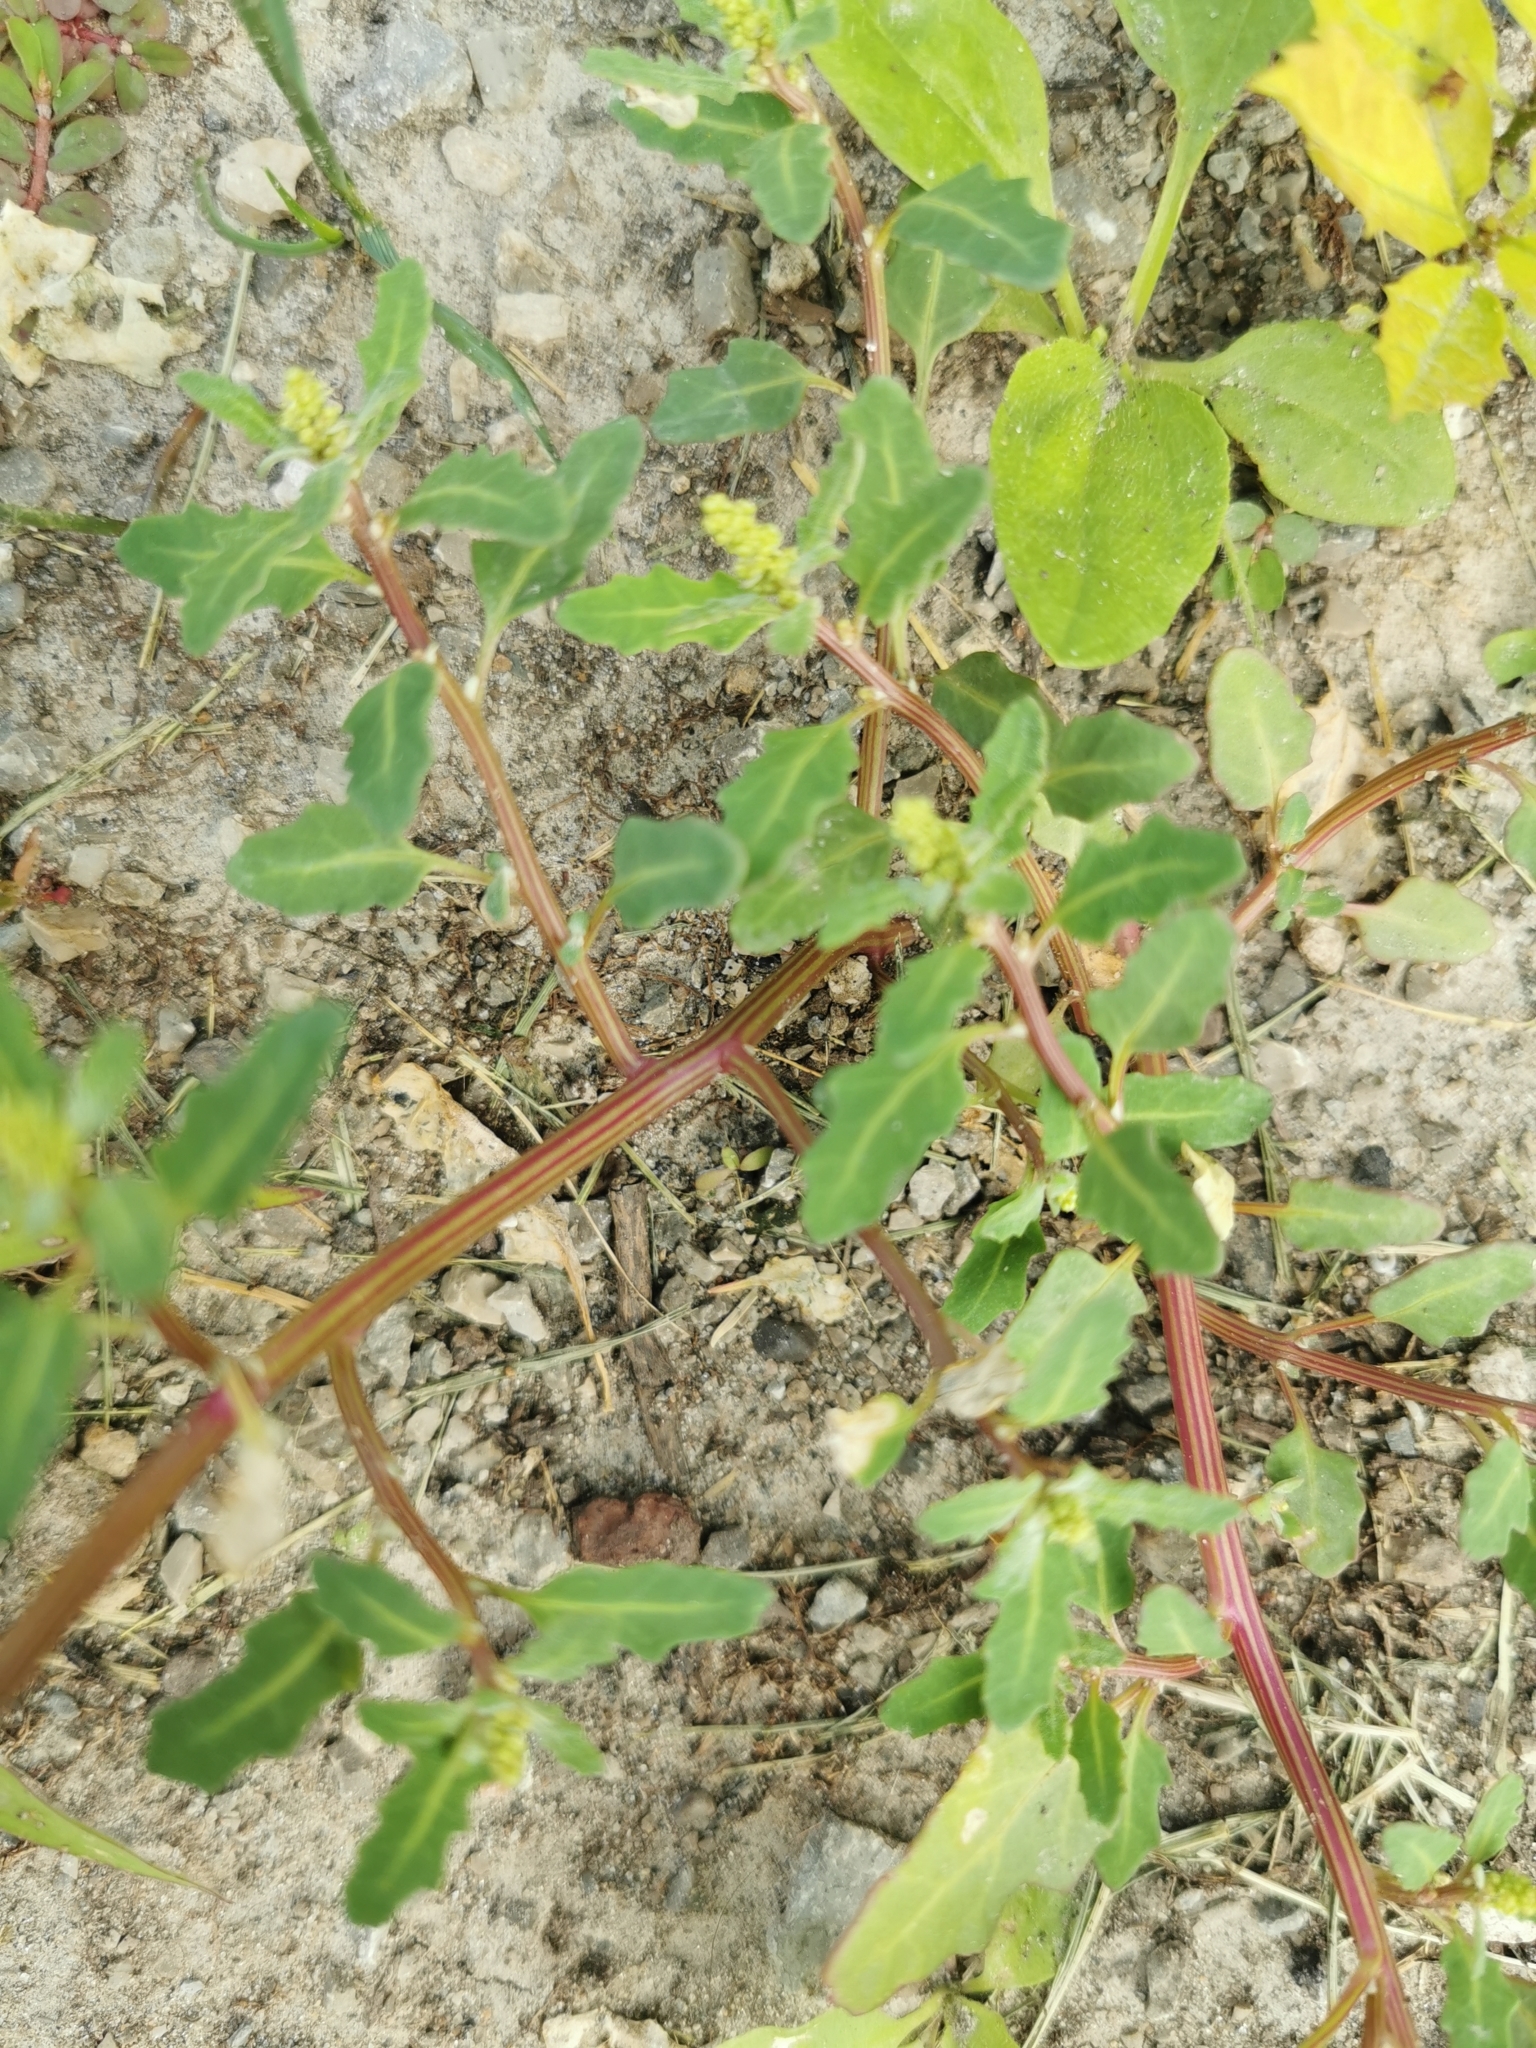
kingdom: Plantae
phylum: Tracheophyta
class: Magnoliopsida
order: Caryophyllales
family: Amaranthaceae
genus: Oxybasis
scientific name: Oxybasis glauca
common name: Glaucous goosefoot
